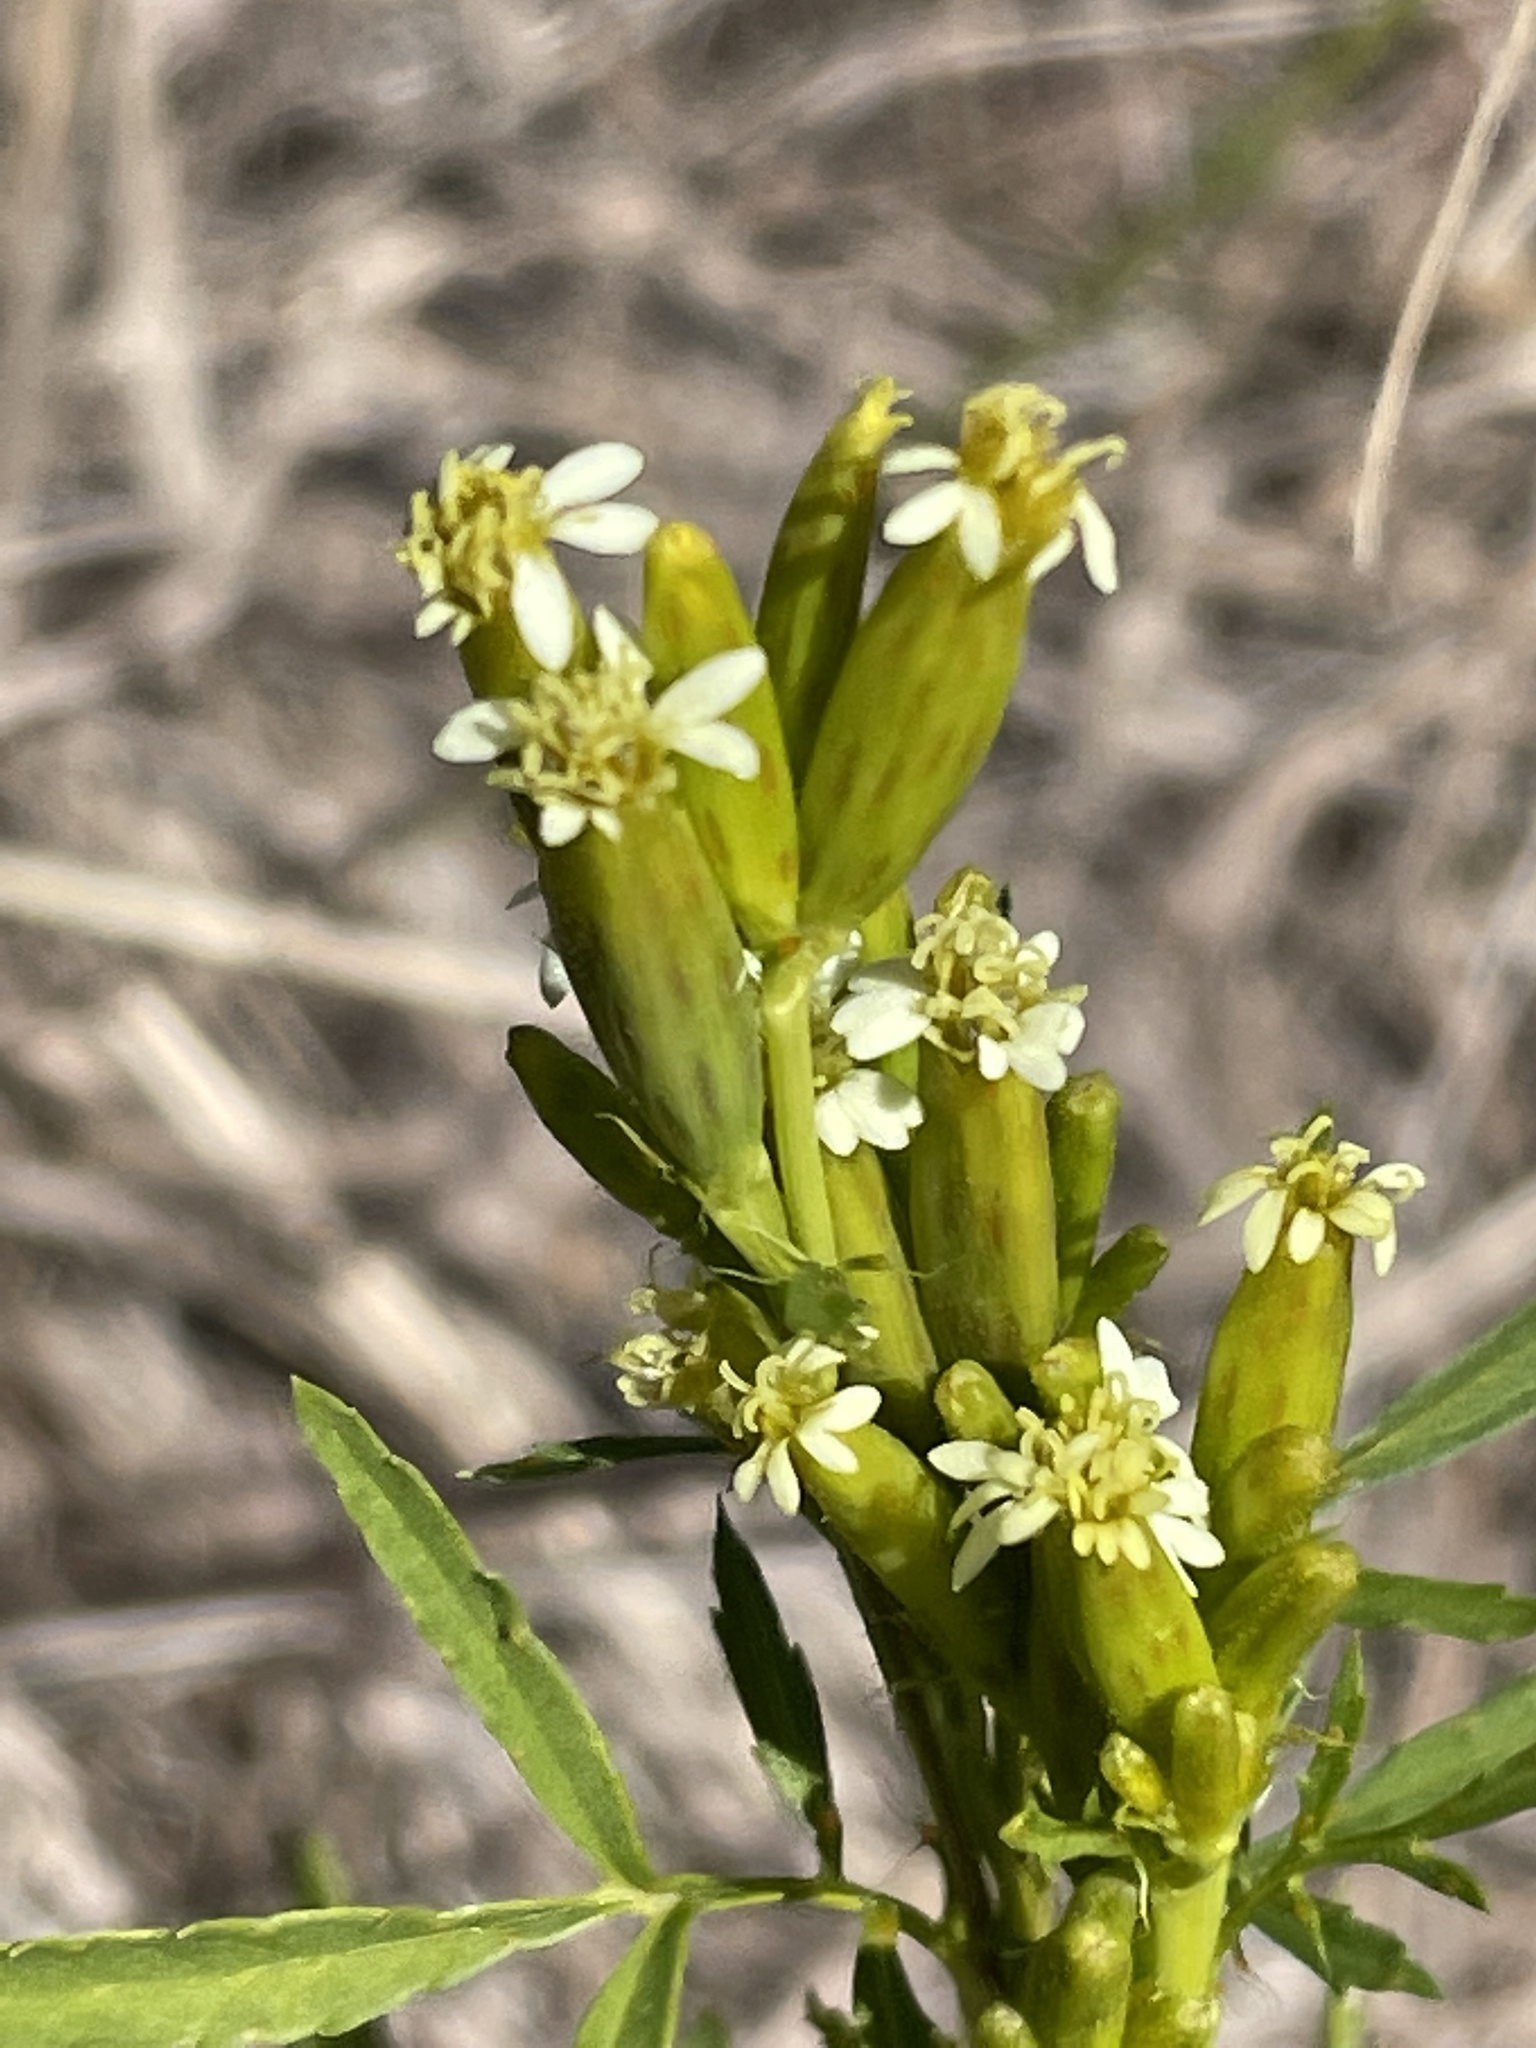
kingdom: Plantae
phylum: Tracheophyta
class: Magnoliopsida
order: Asterales
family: Asteraceae
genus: Tagetes
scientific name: Tagetes minuta
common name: Muster john henry
